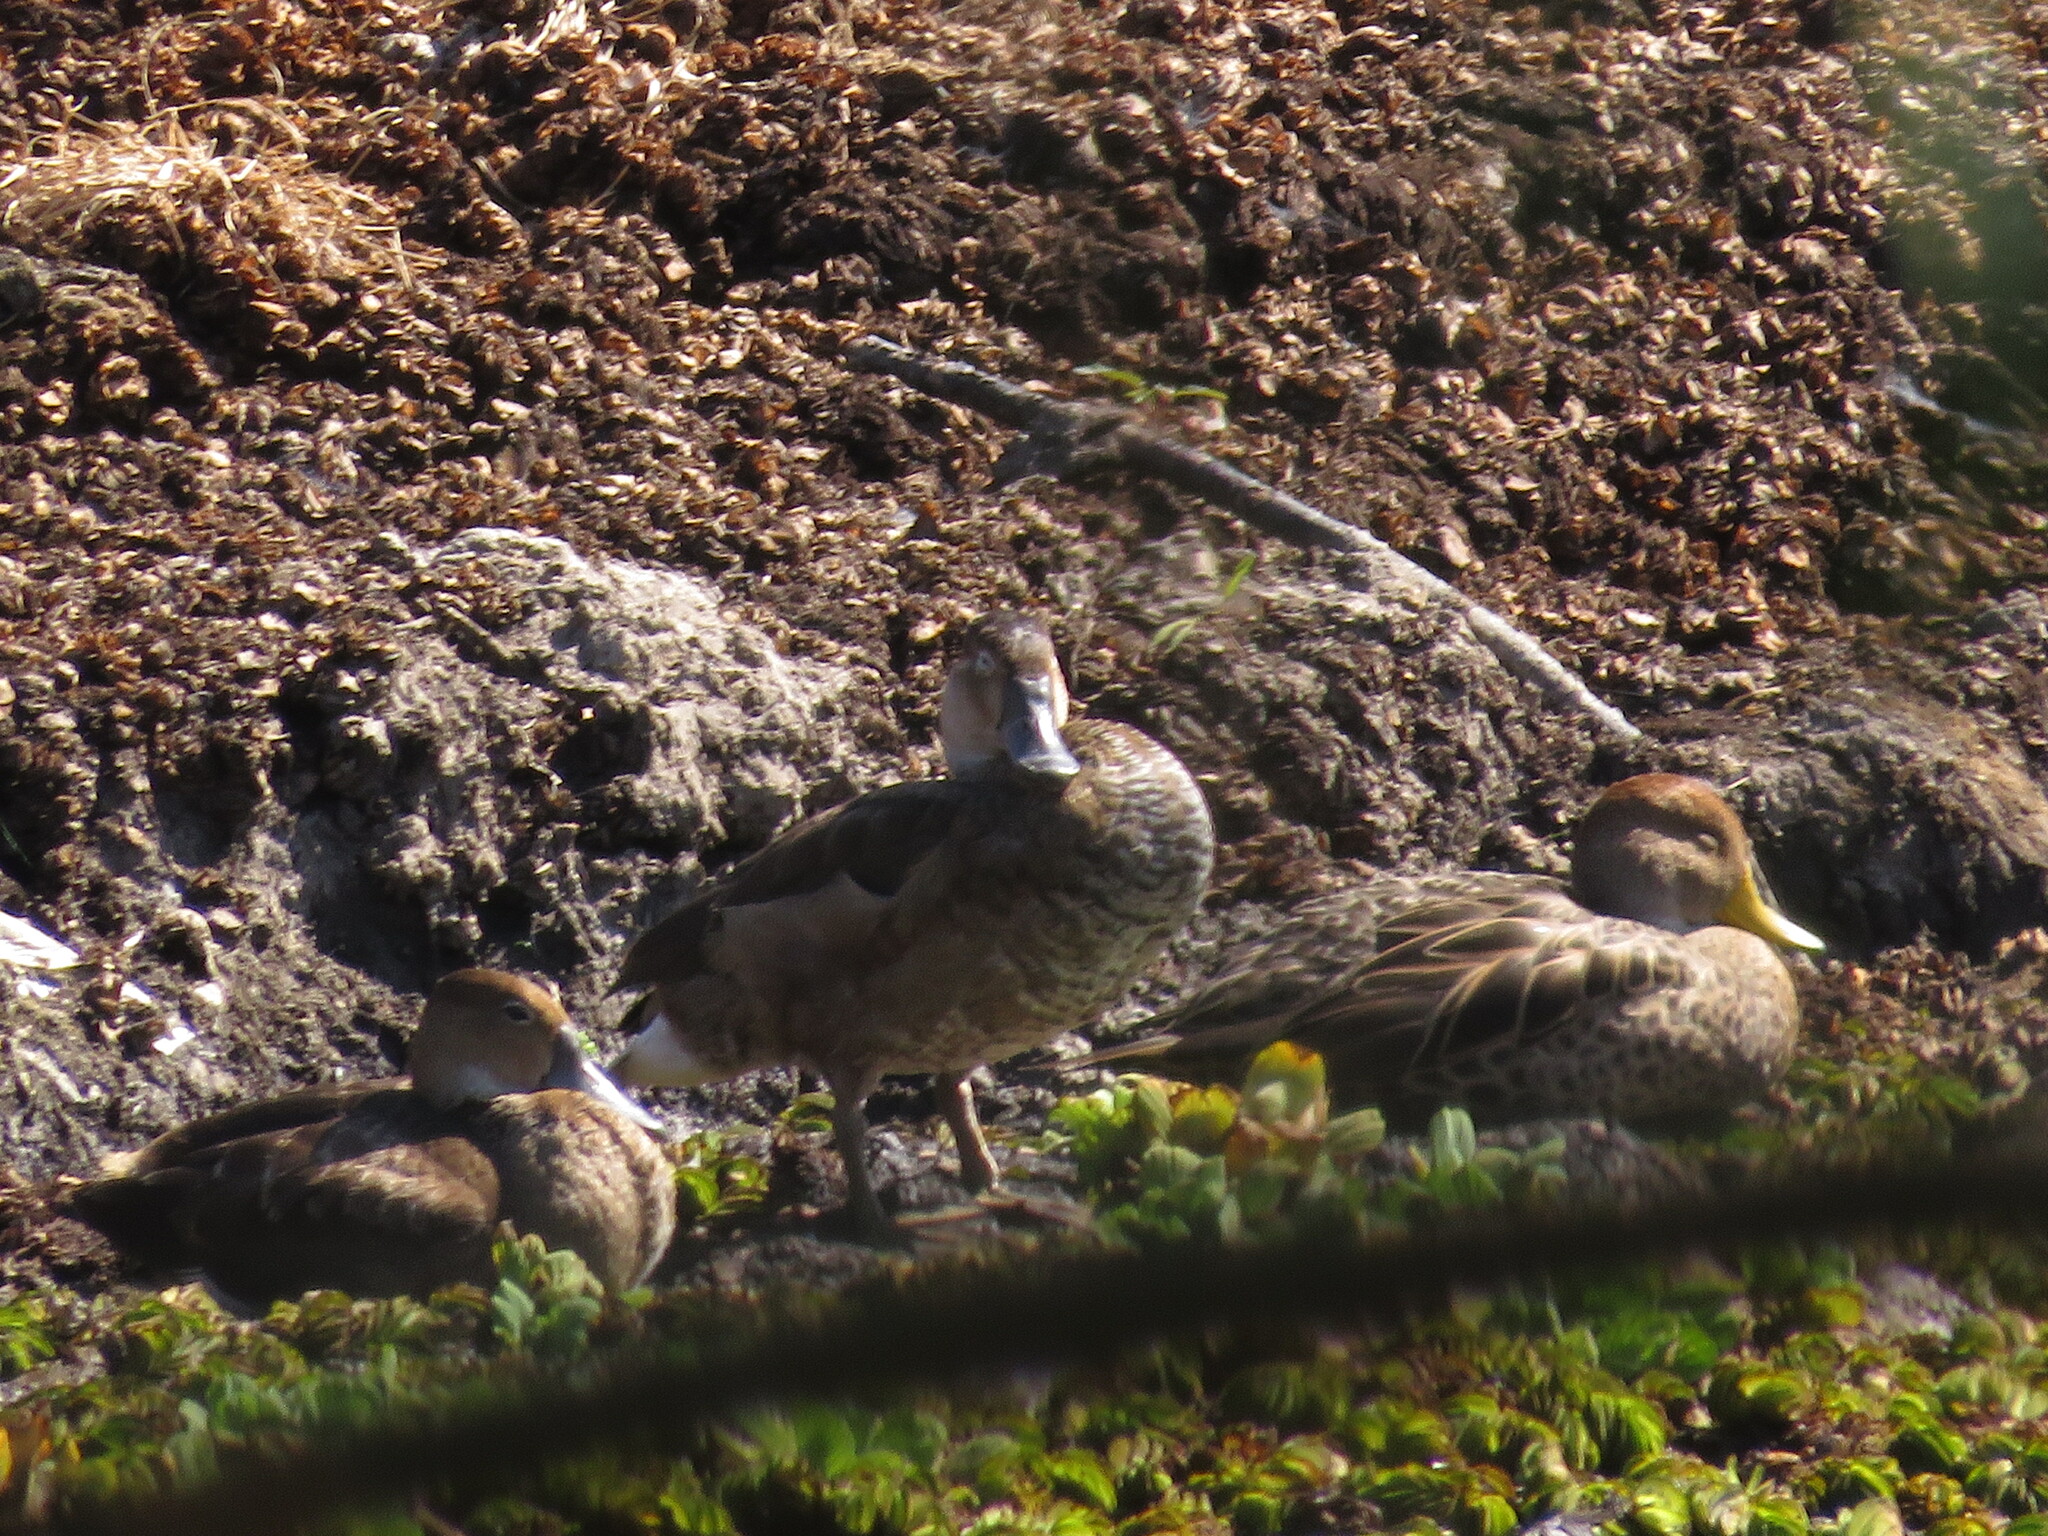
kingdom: Animalia
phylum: Chordata
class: Aves
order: Anseriformes
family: Anatidae
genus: Anas
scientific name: Anas georgica
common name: Yellow-billed pintail
